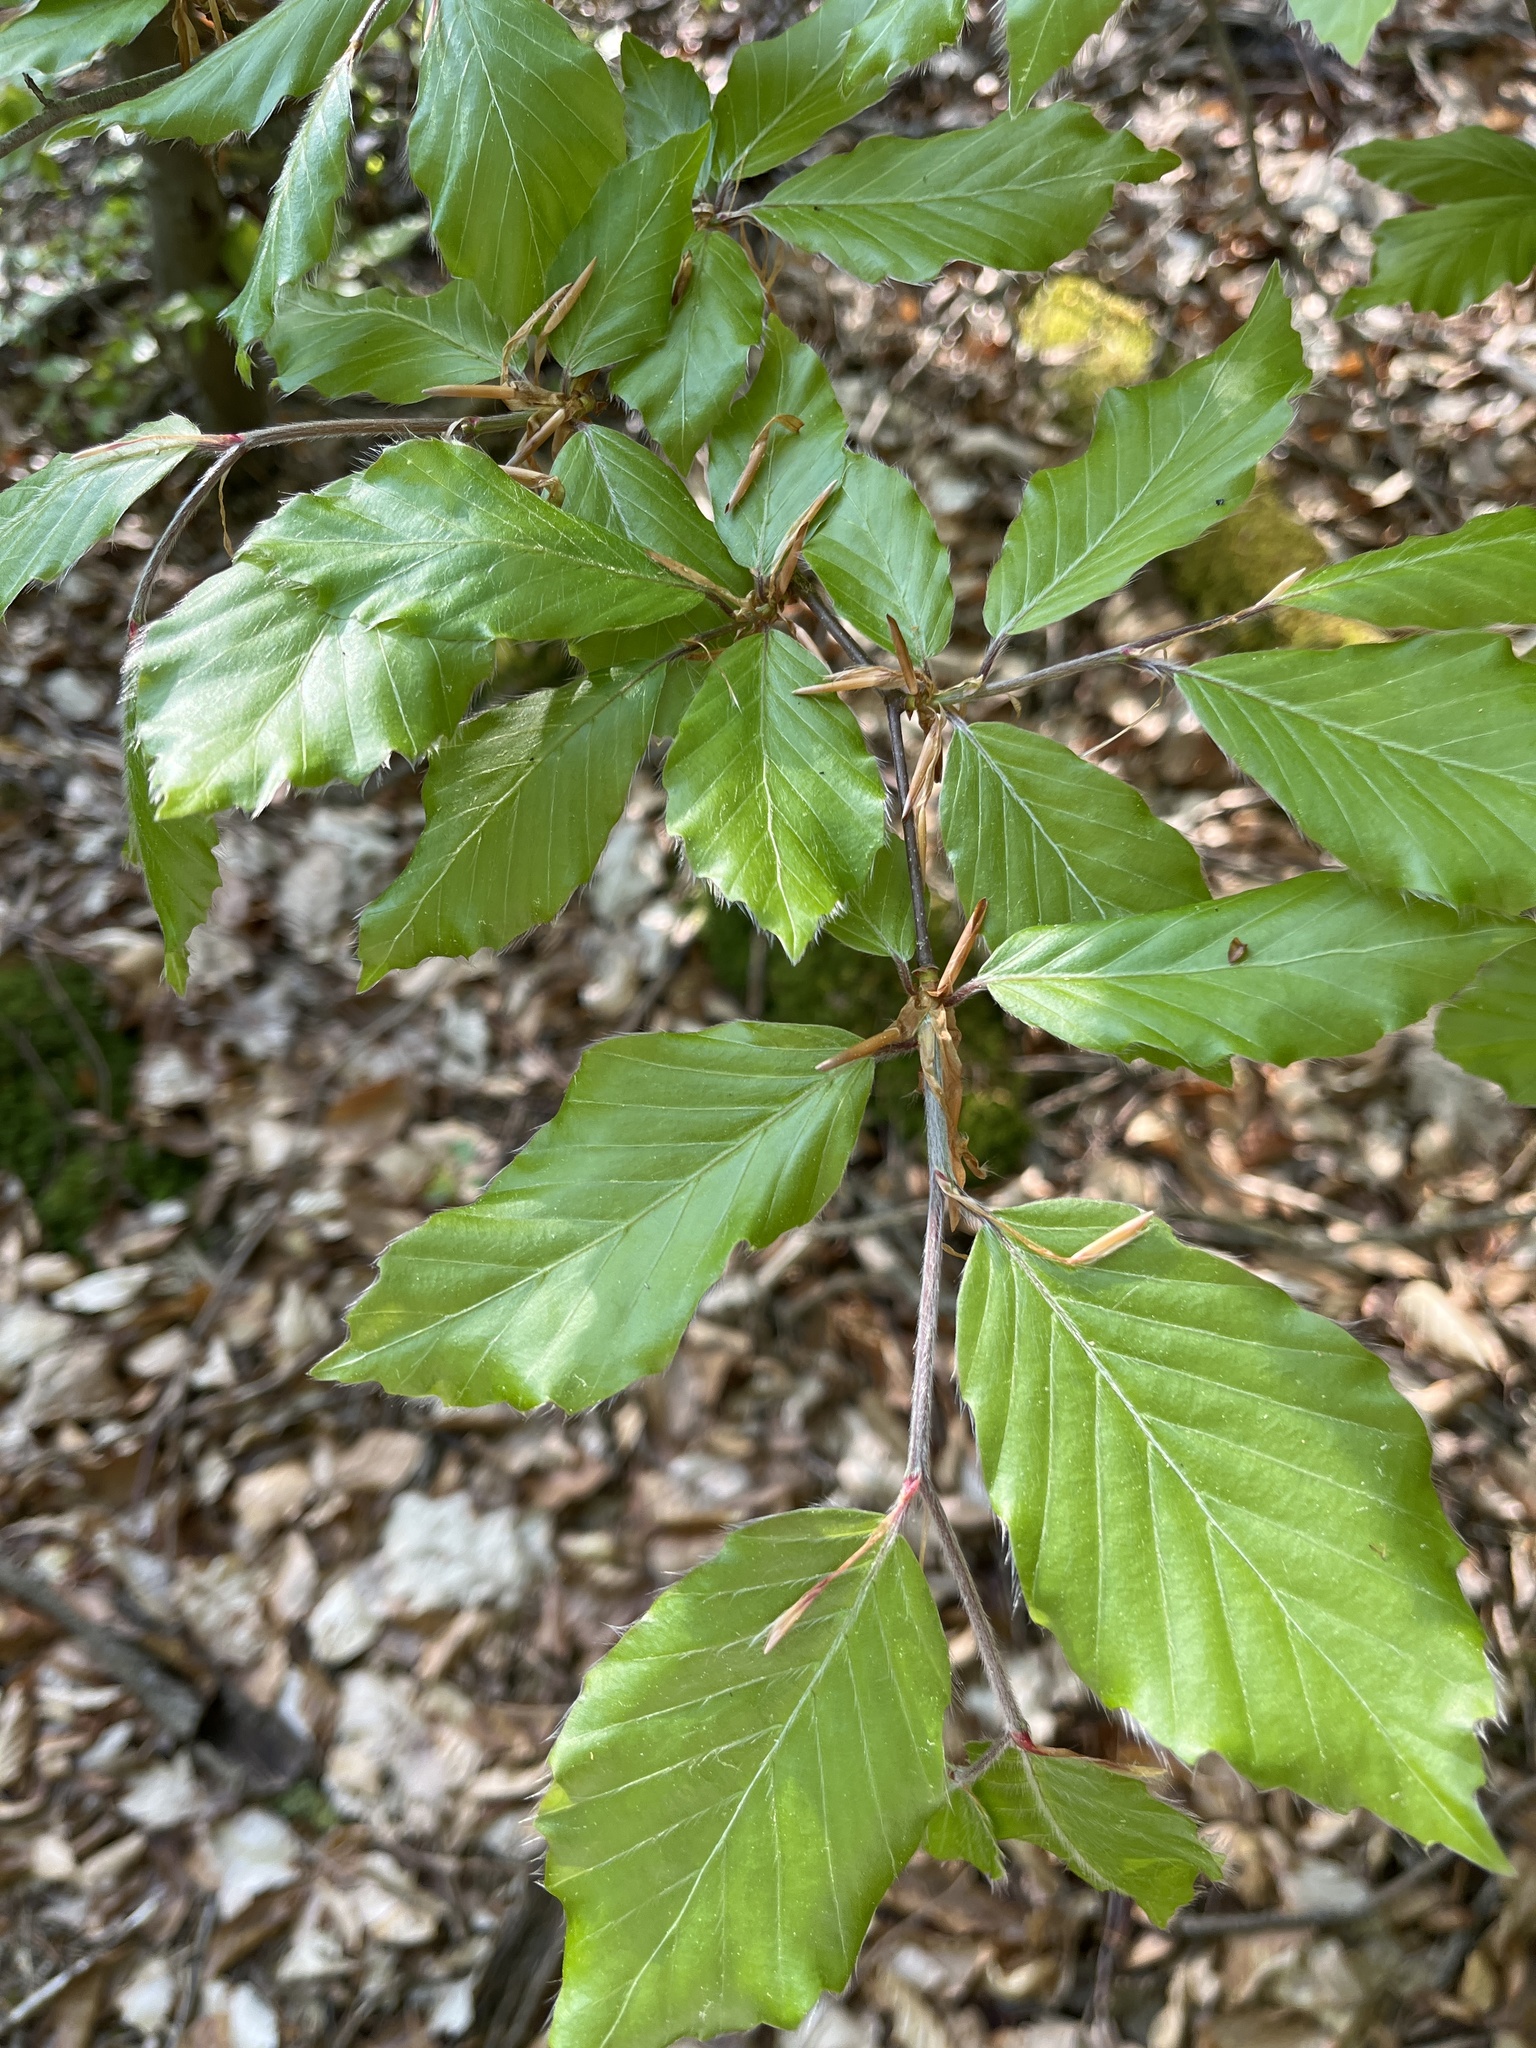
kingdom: Plantae
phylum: Tracheophyta
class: Magnoliopsida
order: Fagales
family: Fagaceae
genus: Fagus
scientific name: Fagus sylvatica
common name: Beech
